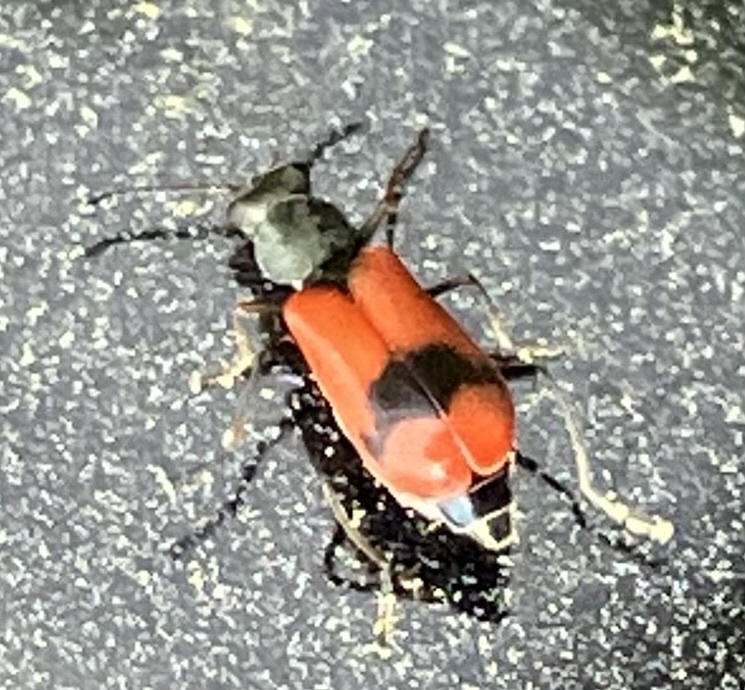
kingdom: Animalia
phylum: Arthropoda
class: Insecta
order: Coleoptera
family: Melyridae
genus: Anthocomus
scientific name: Anthocomus equestris
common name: Black-banded soft-winged flower beetle
